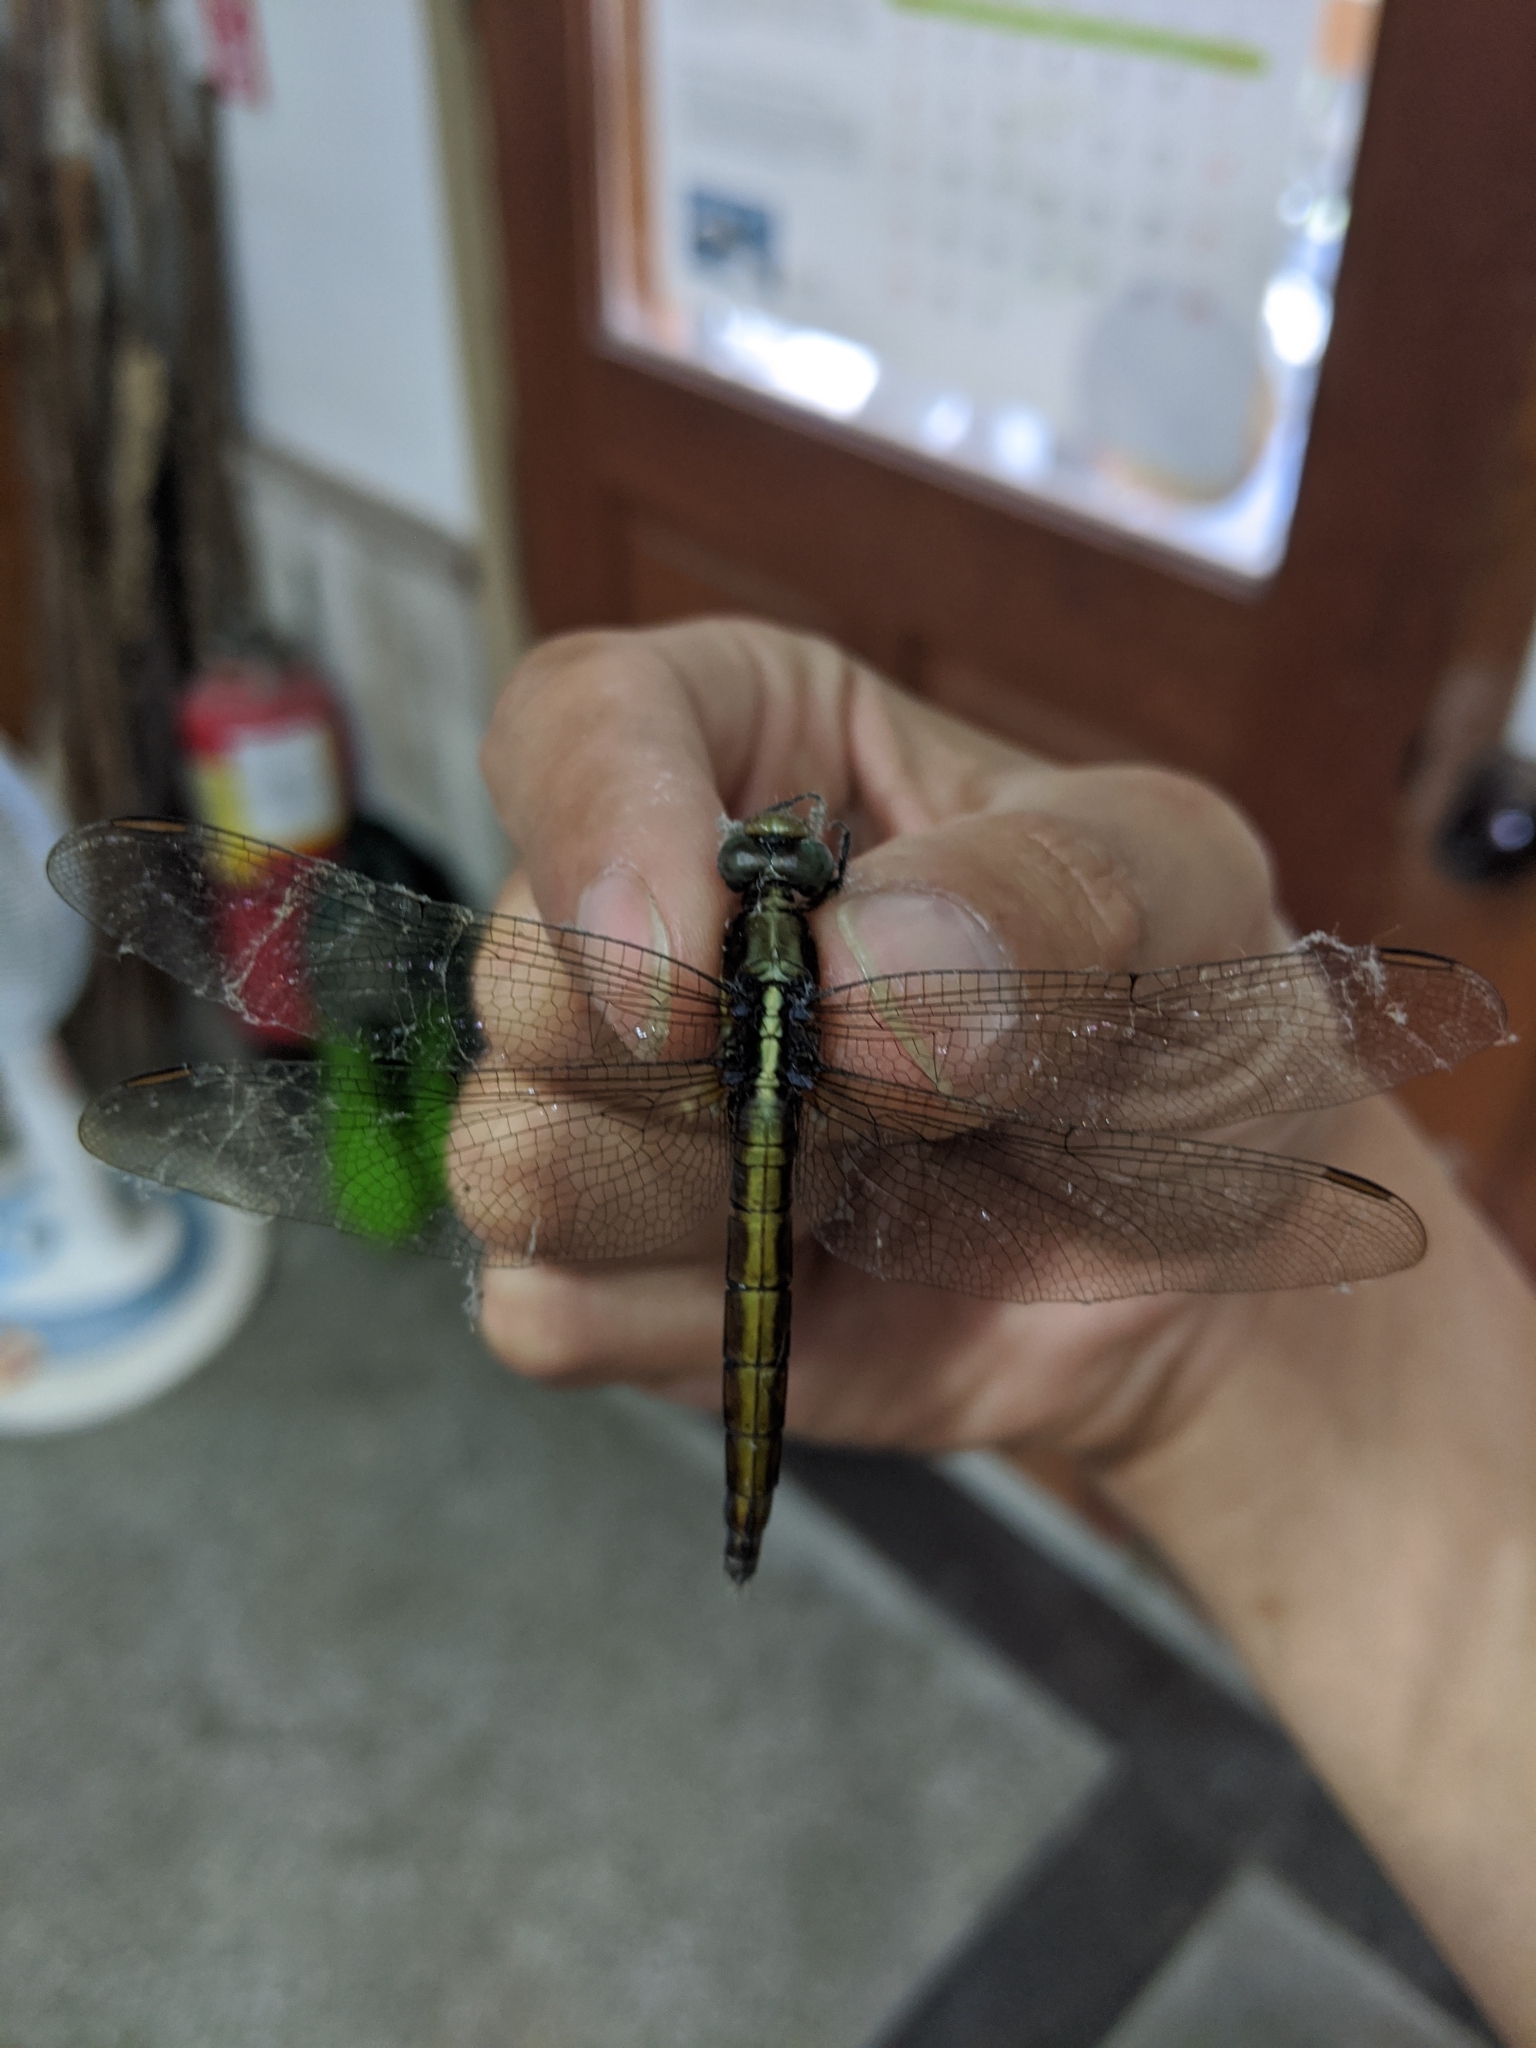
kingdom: Animalia
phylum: Arthropoda
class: Insecta
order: Odonata
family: Libellulidae
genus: Orthetrum
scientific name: Orthetrum glaucum
